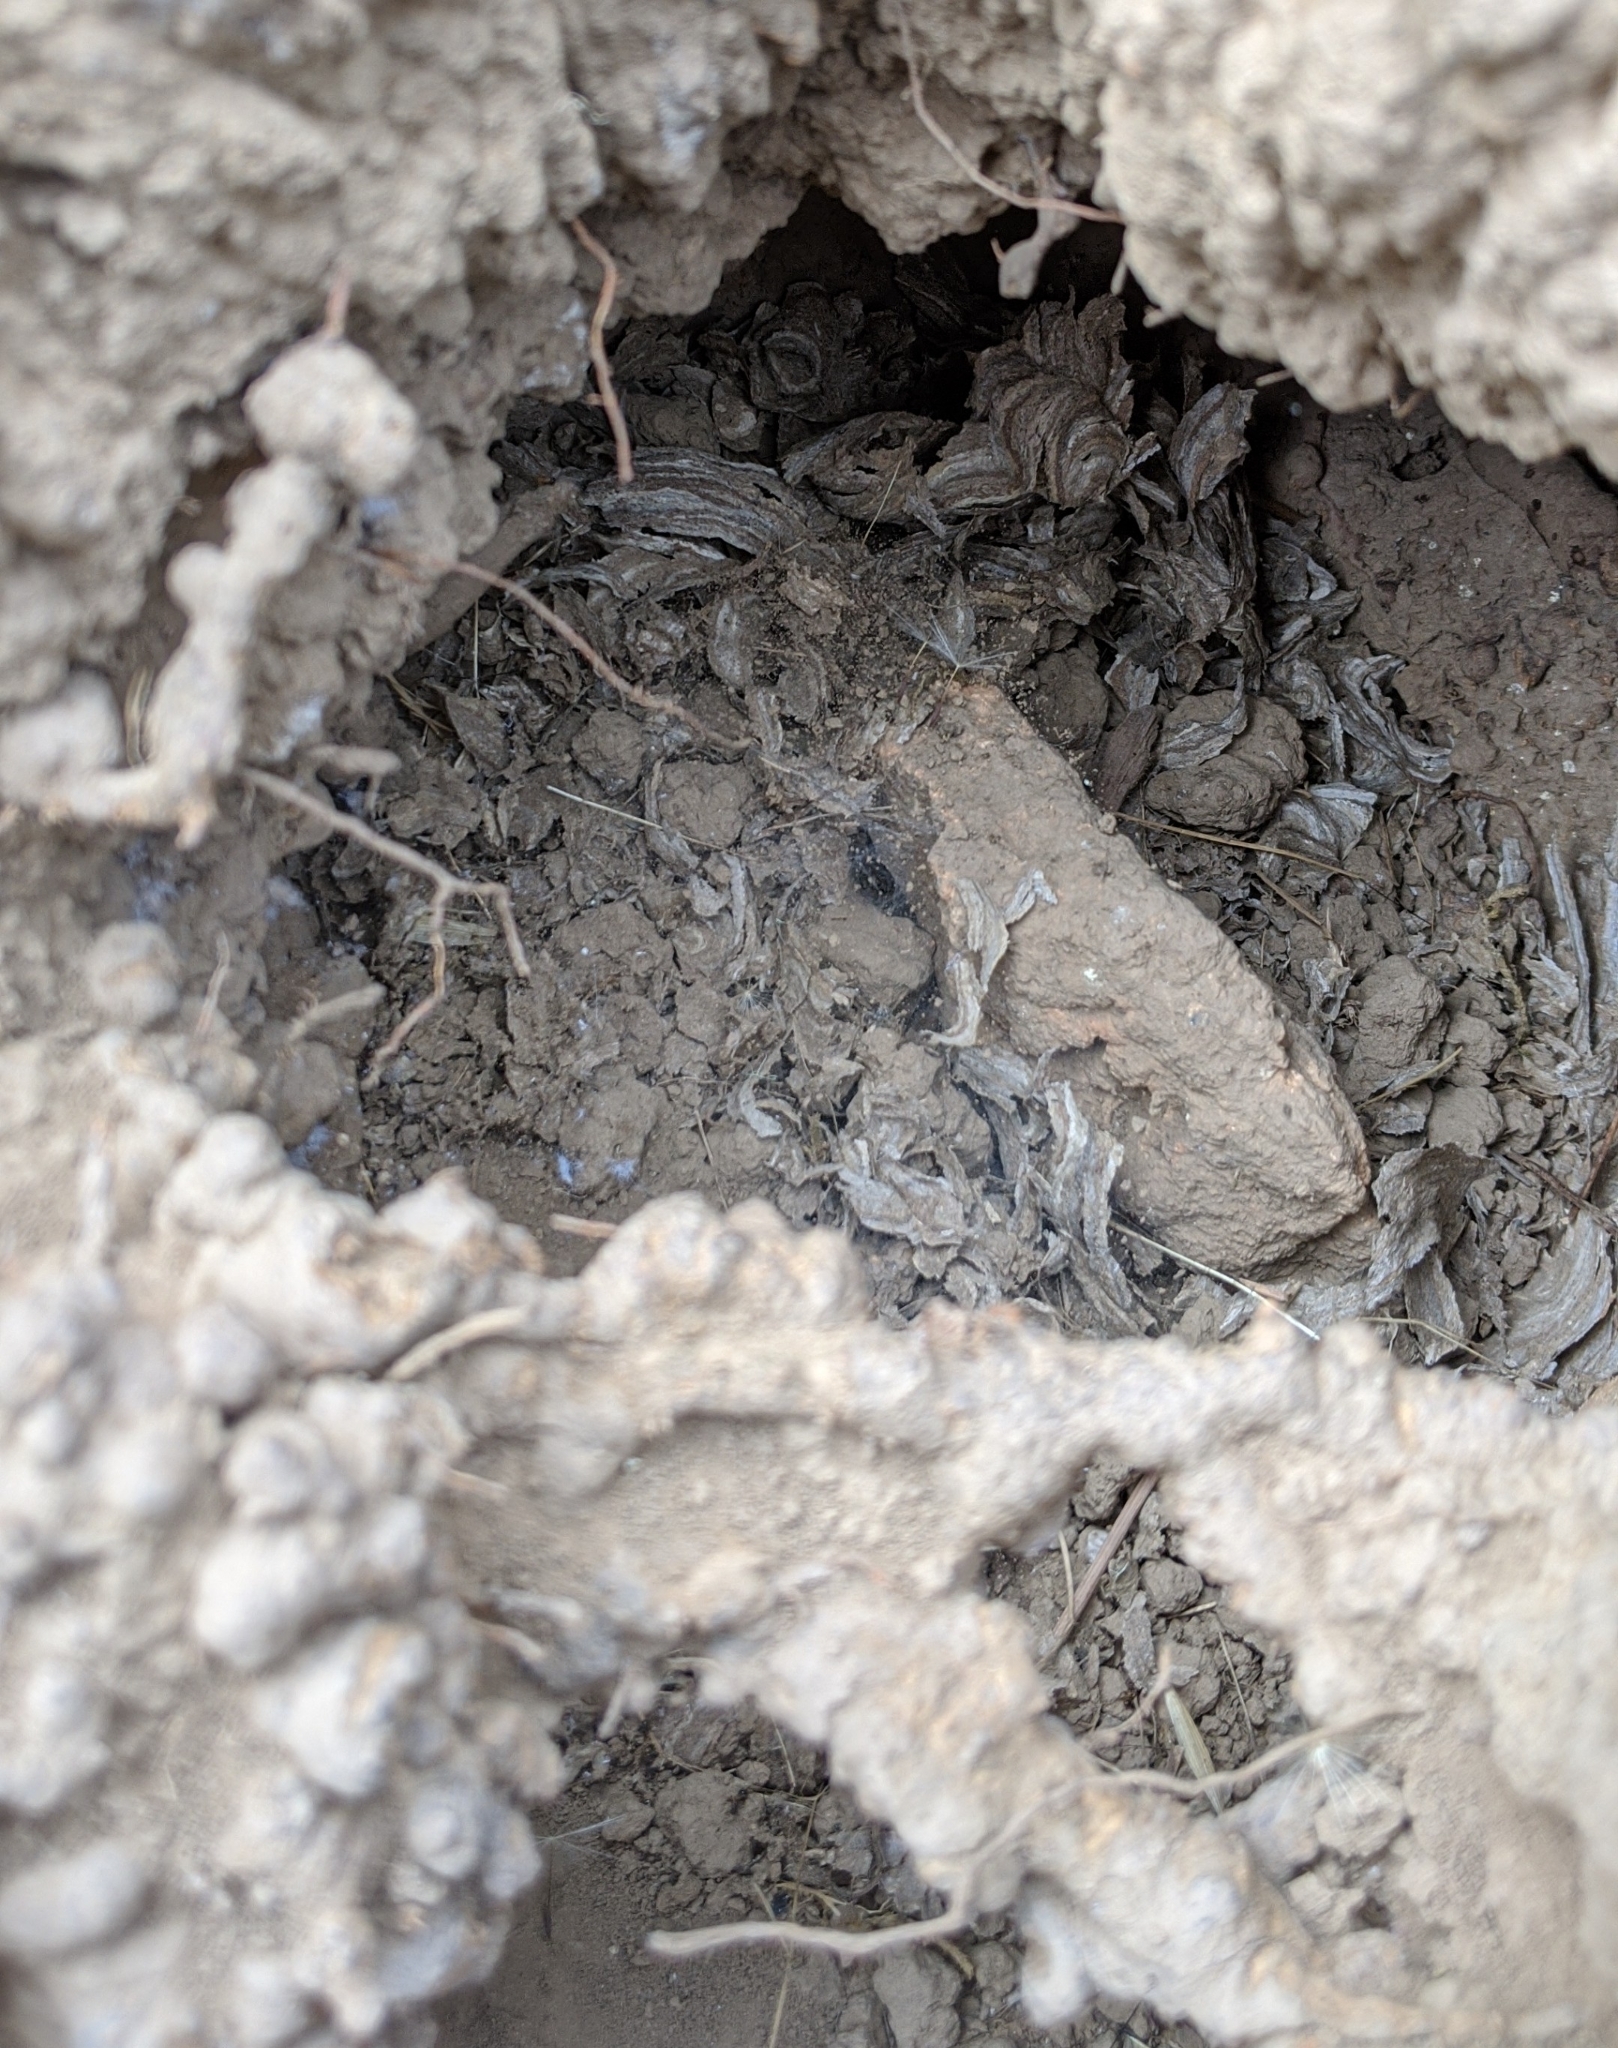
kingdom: Animalia
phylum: Arthropoda
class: Insecta
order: Hymenoptera
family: Vespidae
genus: Vespula
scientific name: Vespula
